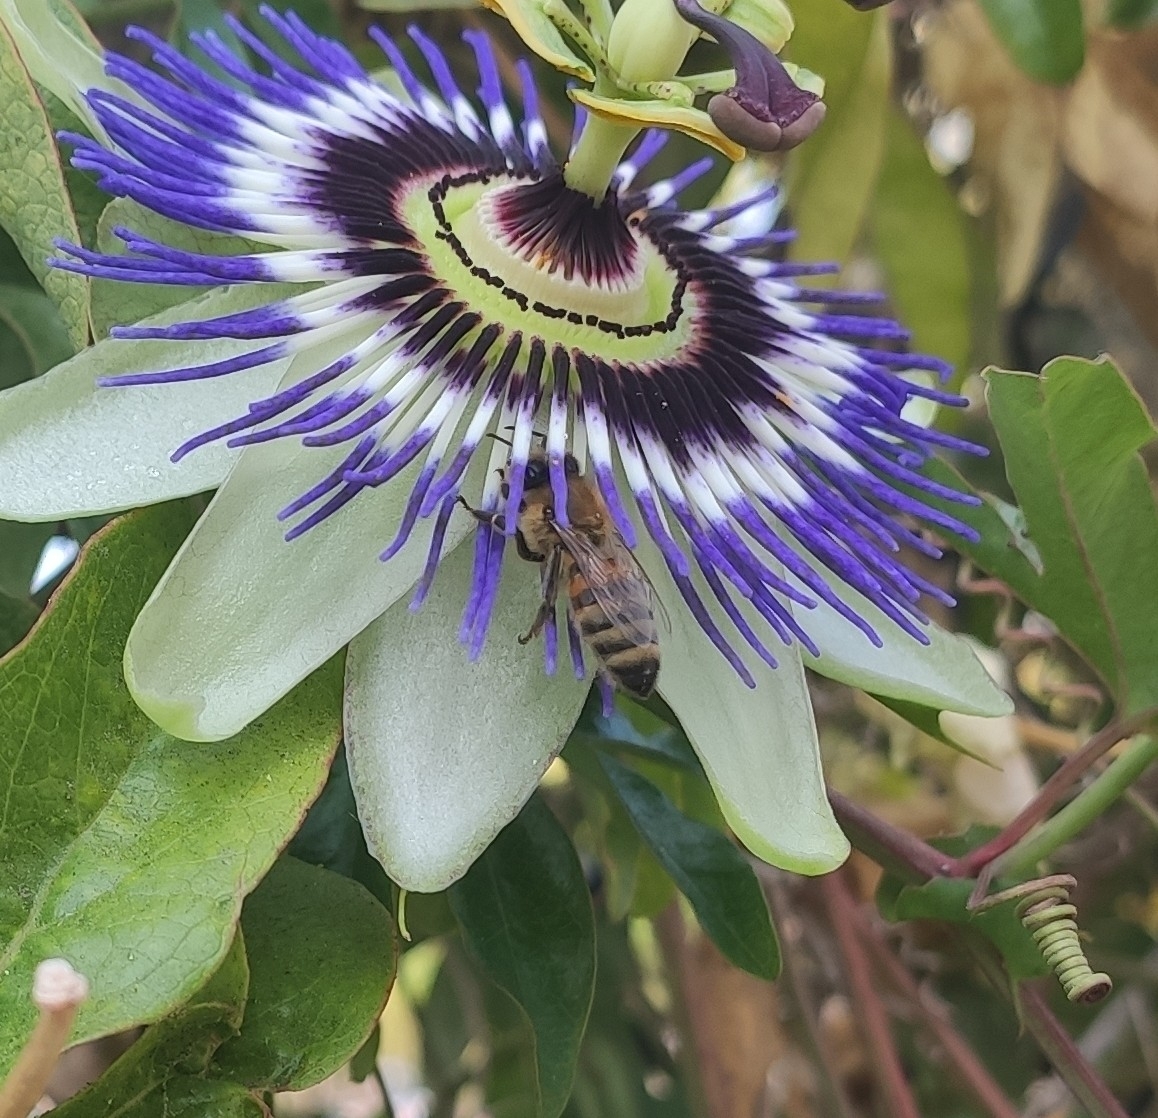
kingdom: Animalia
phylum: Arthropoda
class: Insecta
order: Hymenoptera
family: Apidae
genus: Apis
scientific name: Apis mellifera
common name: Honey bee
